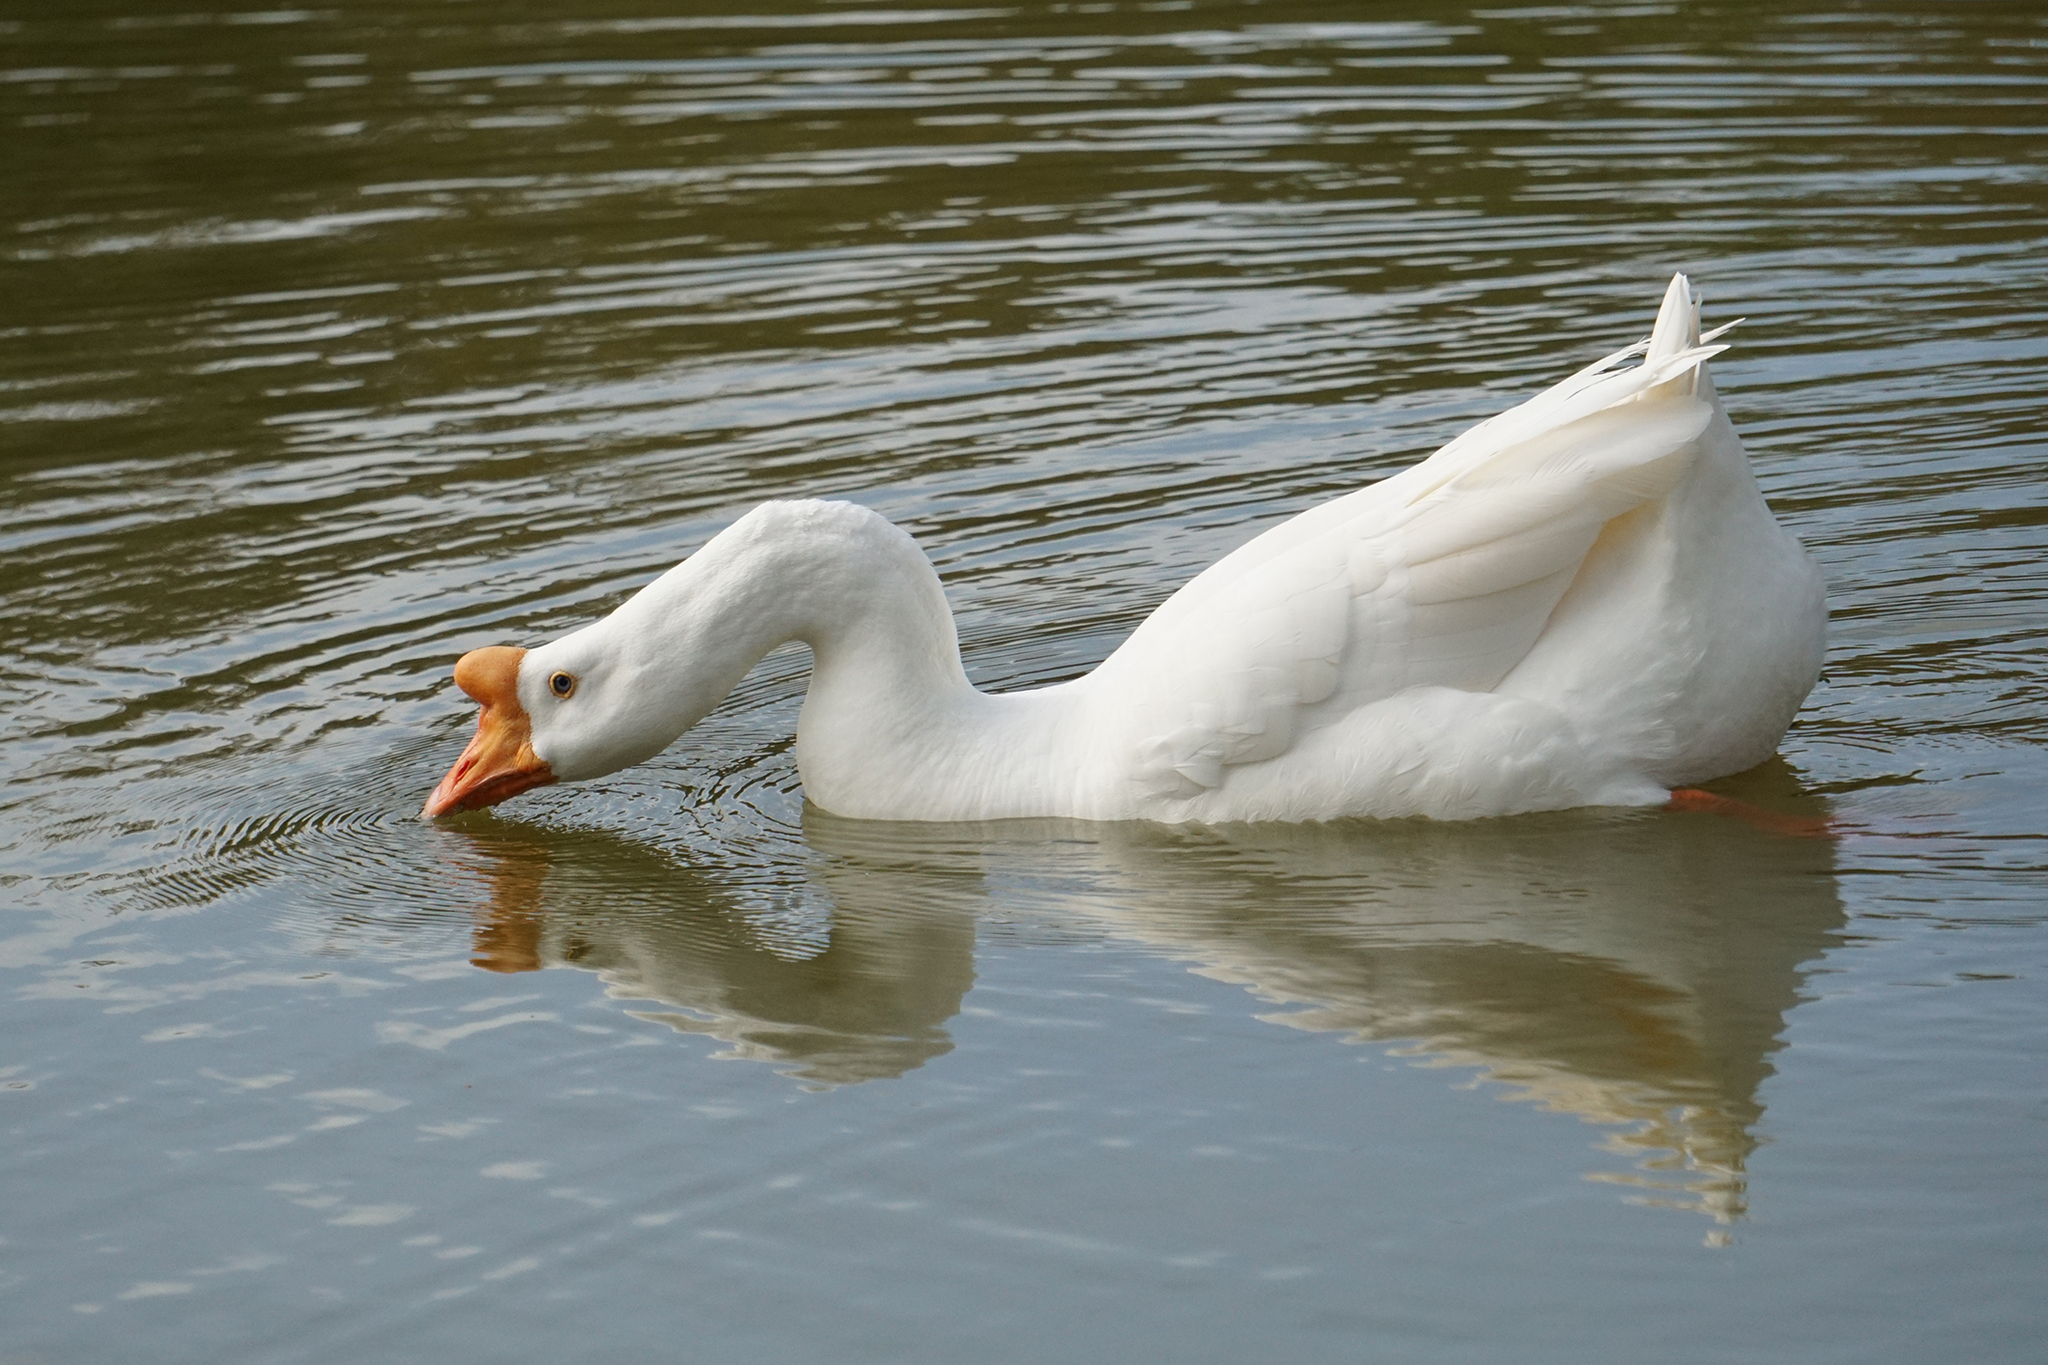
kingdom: Animalia
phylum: Chordata
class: Aves
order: Anseriformes
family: Anatidae
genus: Anser
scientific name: Anser cygnoides
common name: Swan goose
